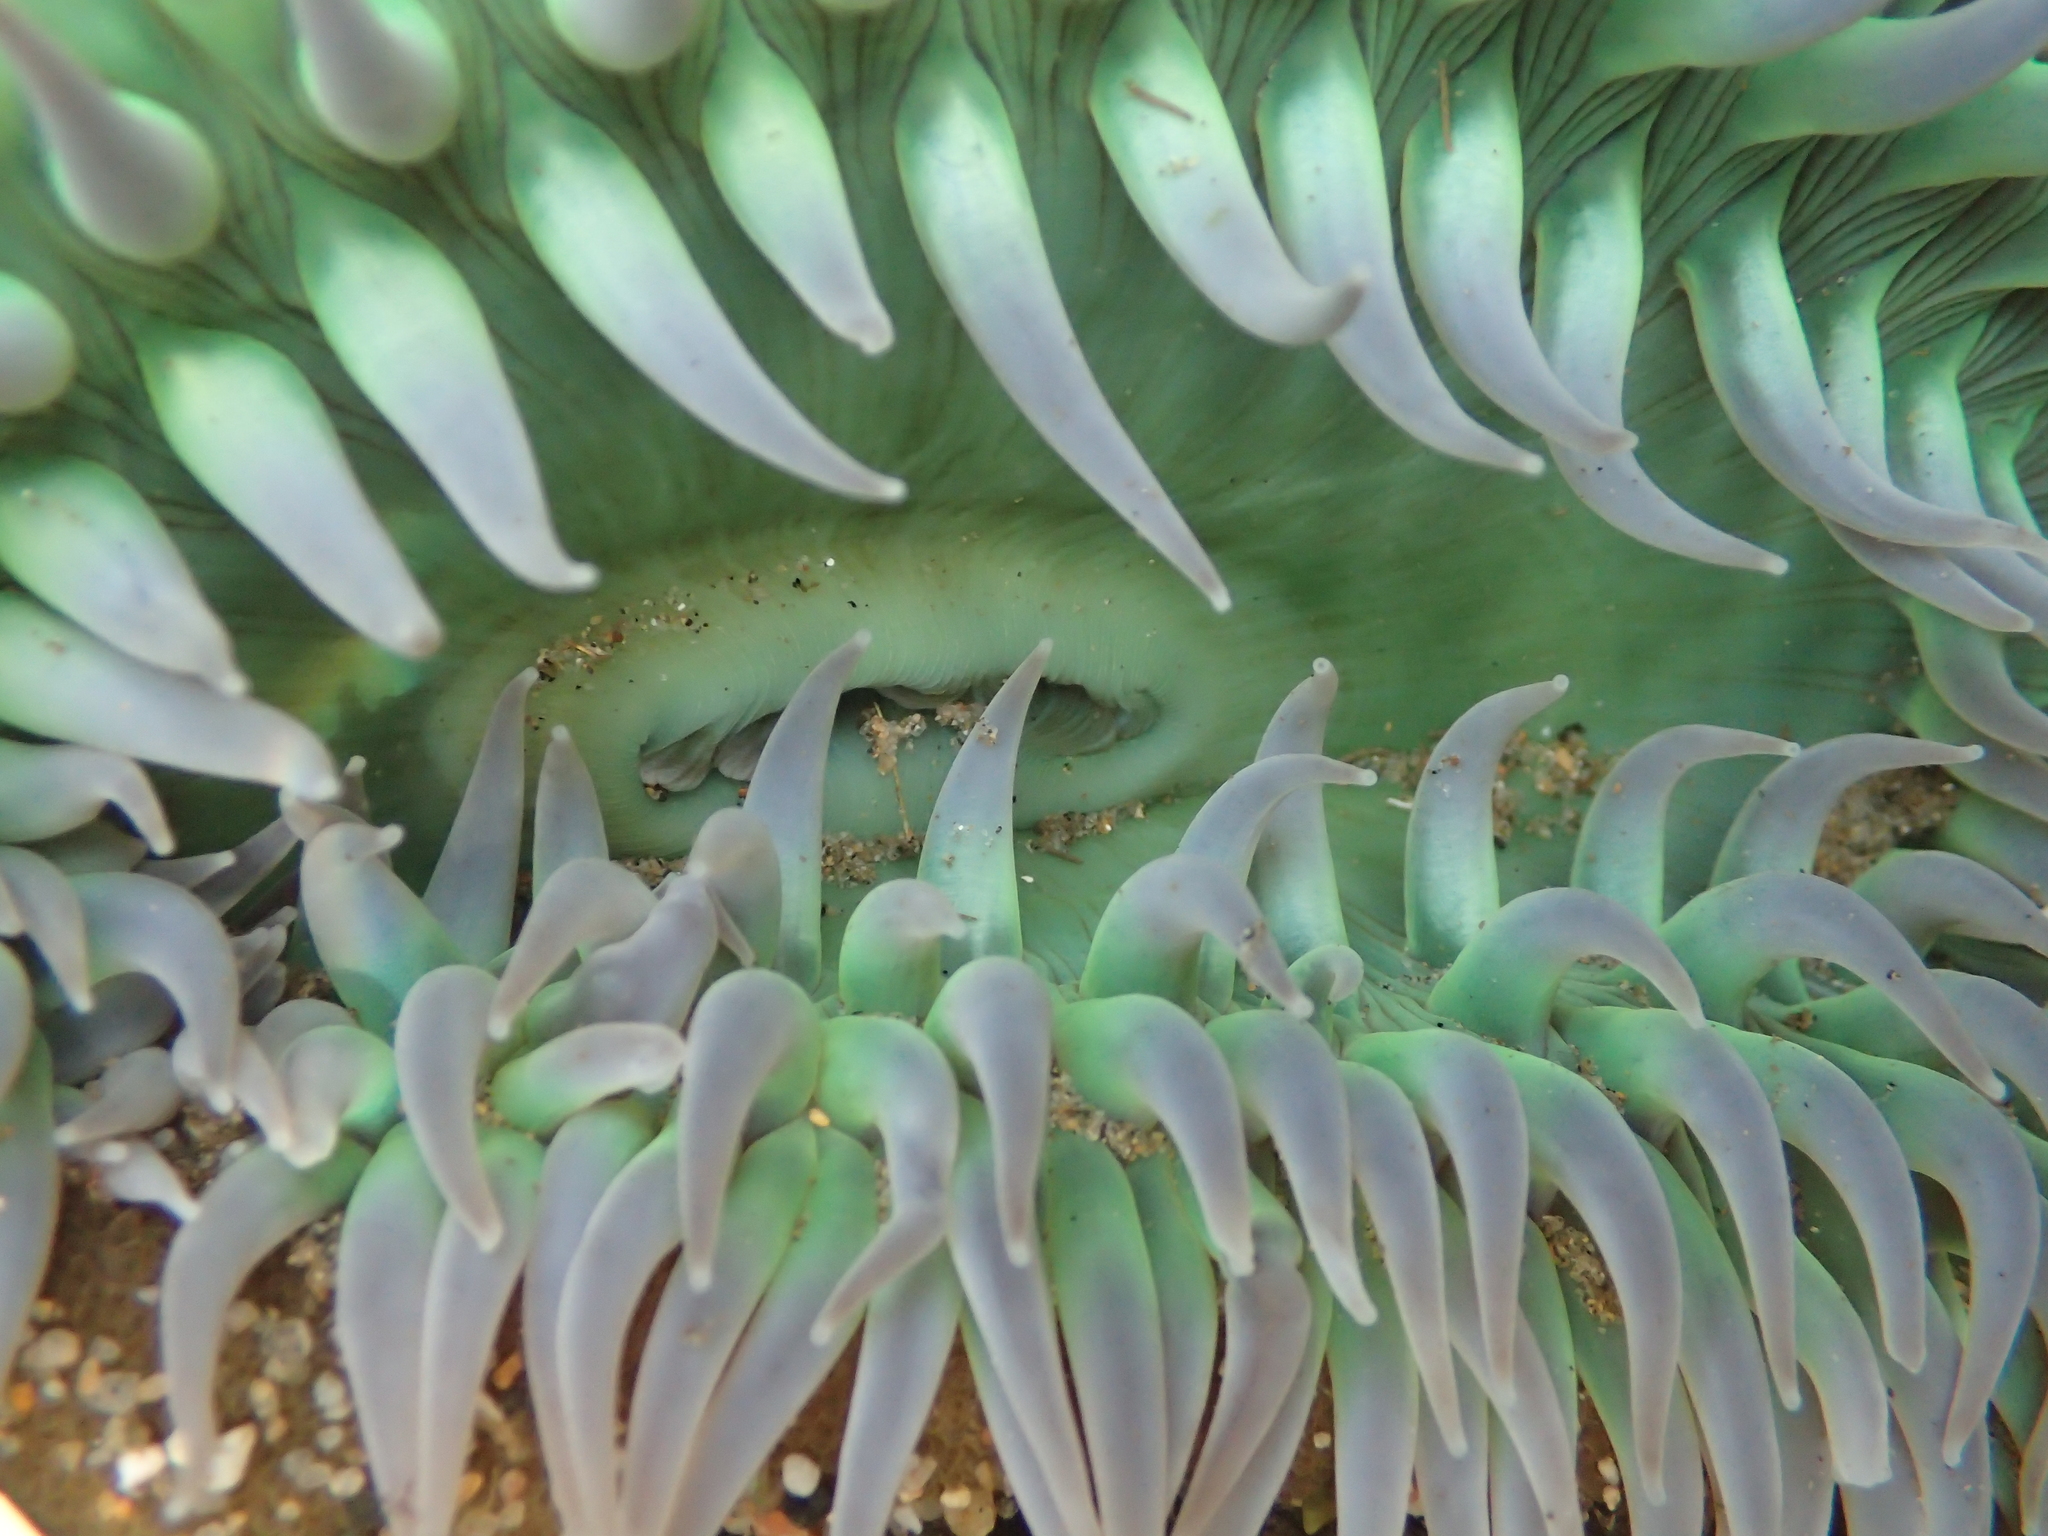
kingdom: Animalia
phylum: Cnidaria
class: Anthozoa
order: Actiniaria
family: Actiniidae
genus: Anthopleura
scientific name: Anthopleura xanthogrammica
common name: Giant green anemone
